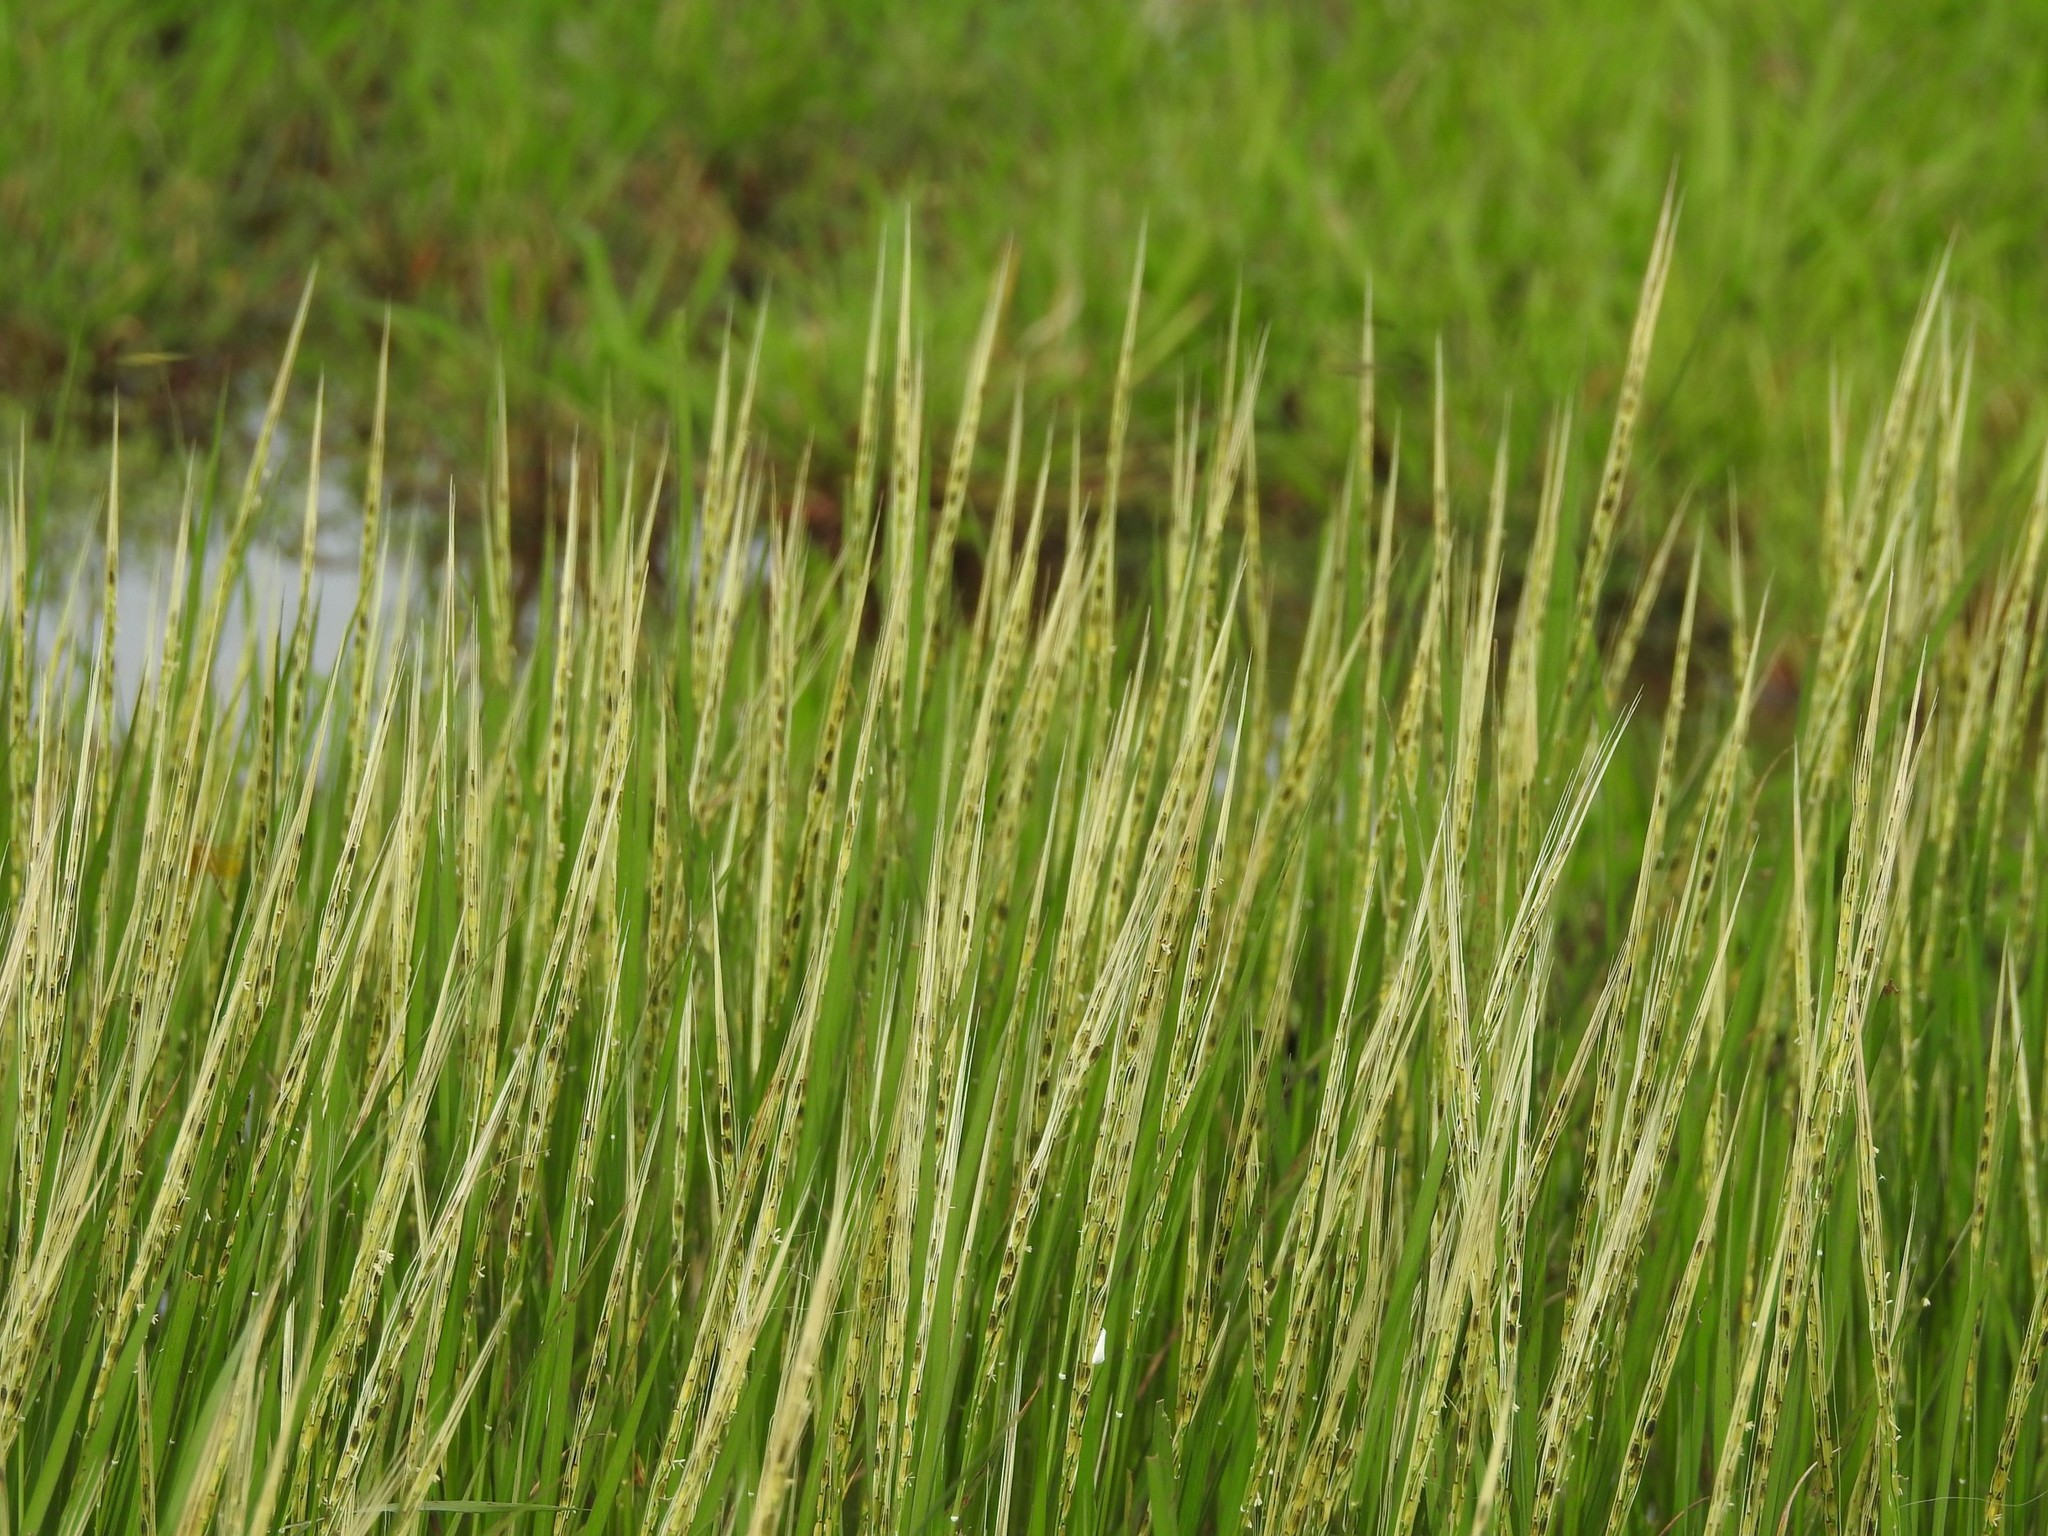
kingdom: Plantae
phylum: Tracheophyta
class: Liliopsida
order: Poales
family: Poaceae
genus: Oryza
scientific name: Oryza sativa
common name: Rice
